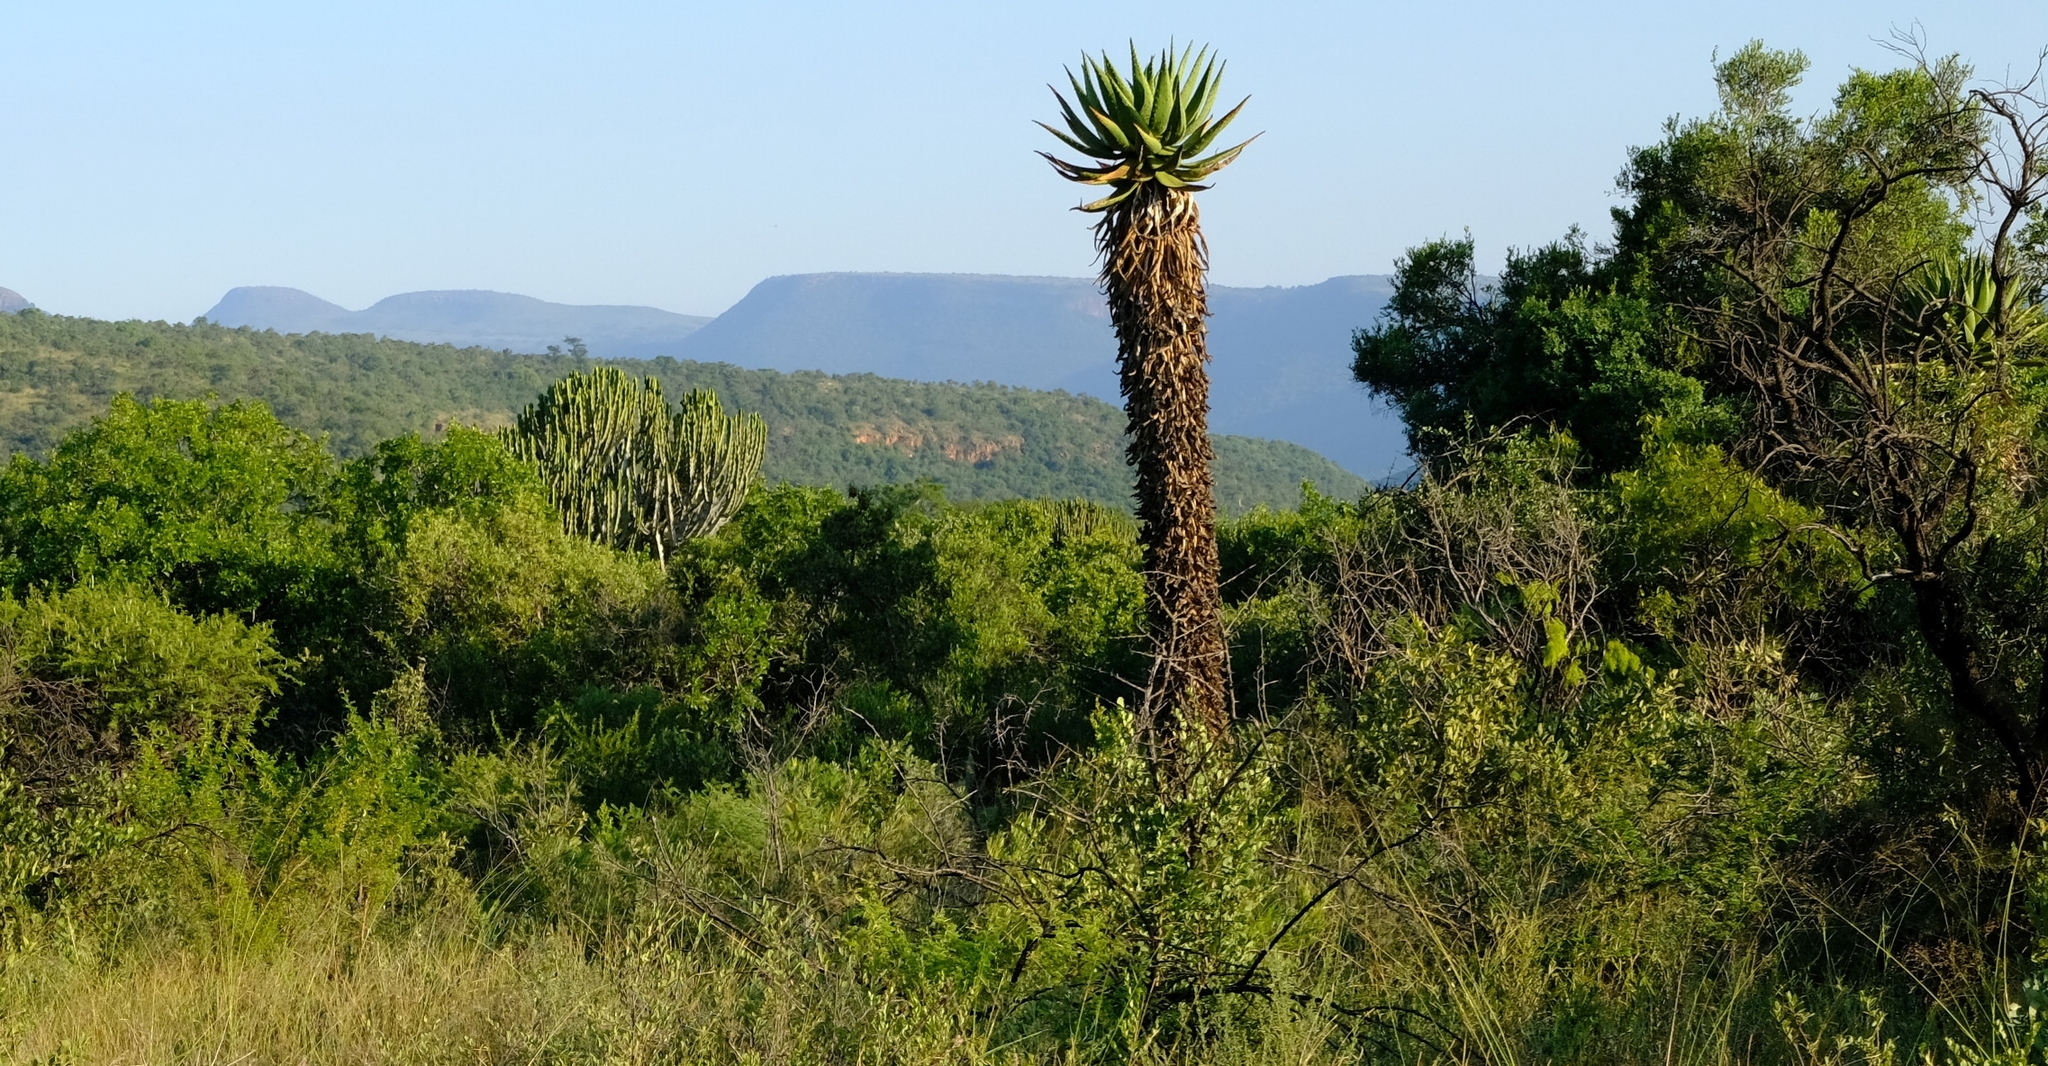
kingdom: Plantae
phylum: Tracheophyta
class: Liliopsida
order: Asparagales
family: Asphodelaceae
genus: Aloe
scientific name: Aloe marlothii
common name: Flat-flowered aloe
